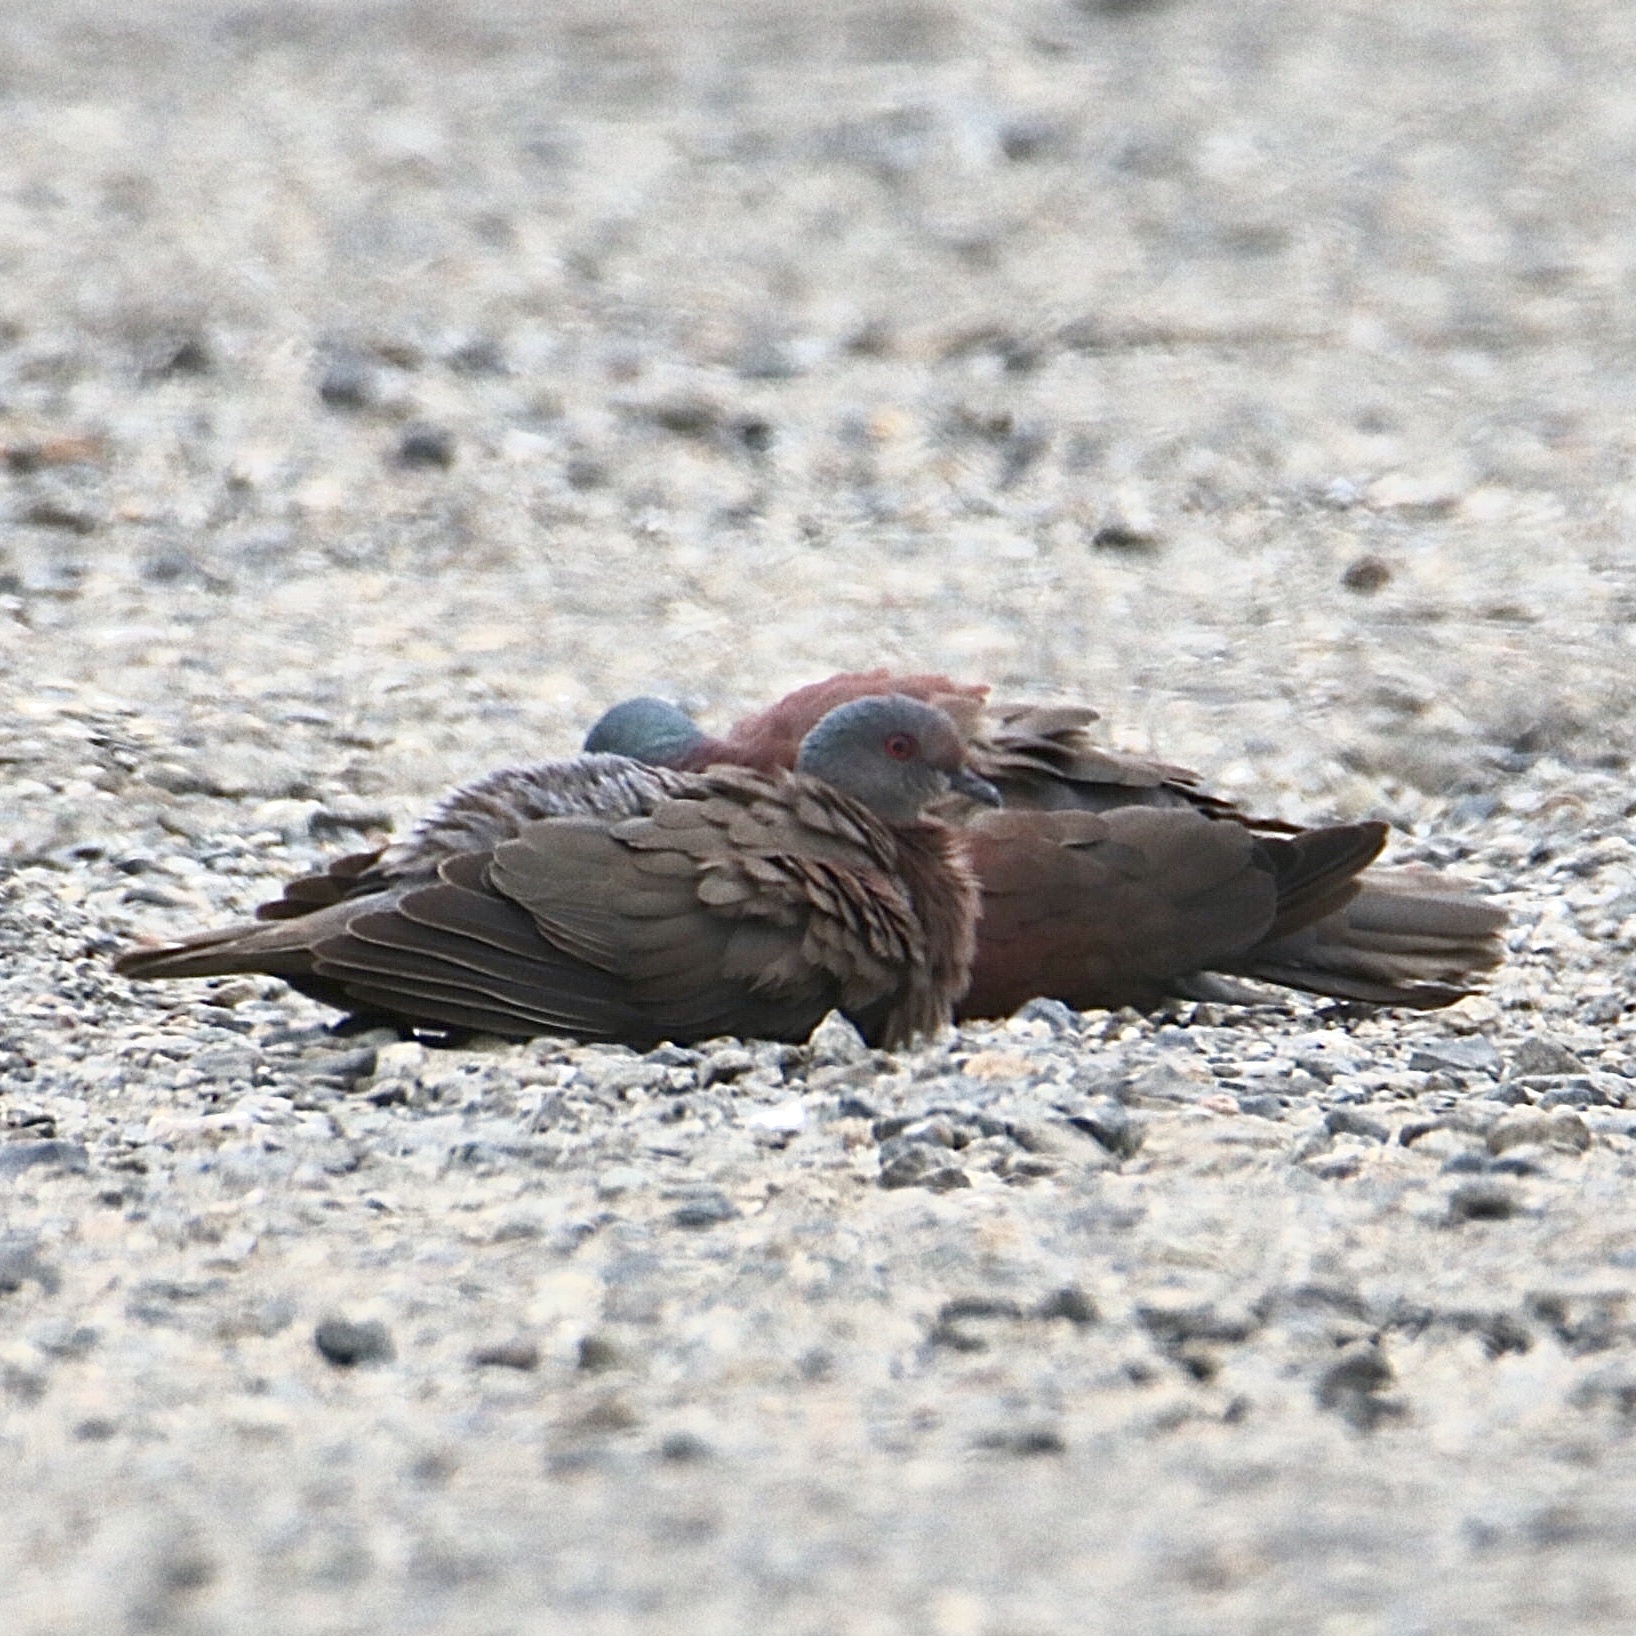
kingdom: Animalia
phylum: Chordata
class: Aves
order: Columbiformes
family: Columbidae
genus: Patagioenas
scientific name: Patagioenas cayennensis
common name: Pale-vented pigeon
